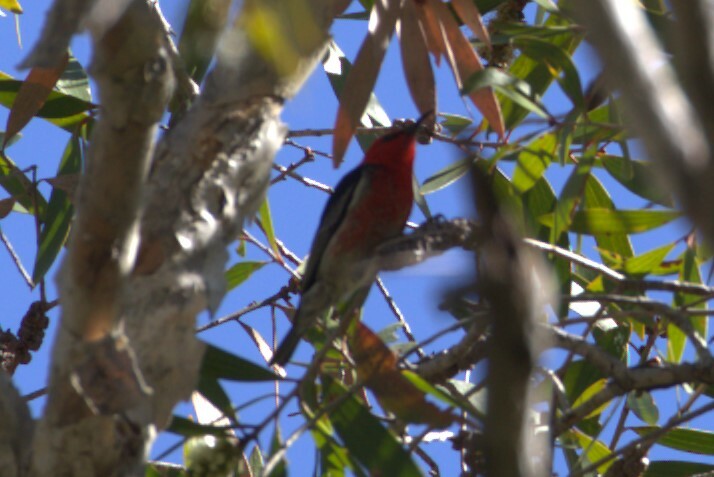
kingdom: Animalia
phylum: Chordata
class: Aves
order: Passeriformes
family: Meliphagidae
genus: Myzomela
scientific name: Myzomela sanguinolenta
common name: Scarlet myzomela
